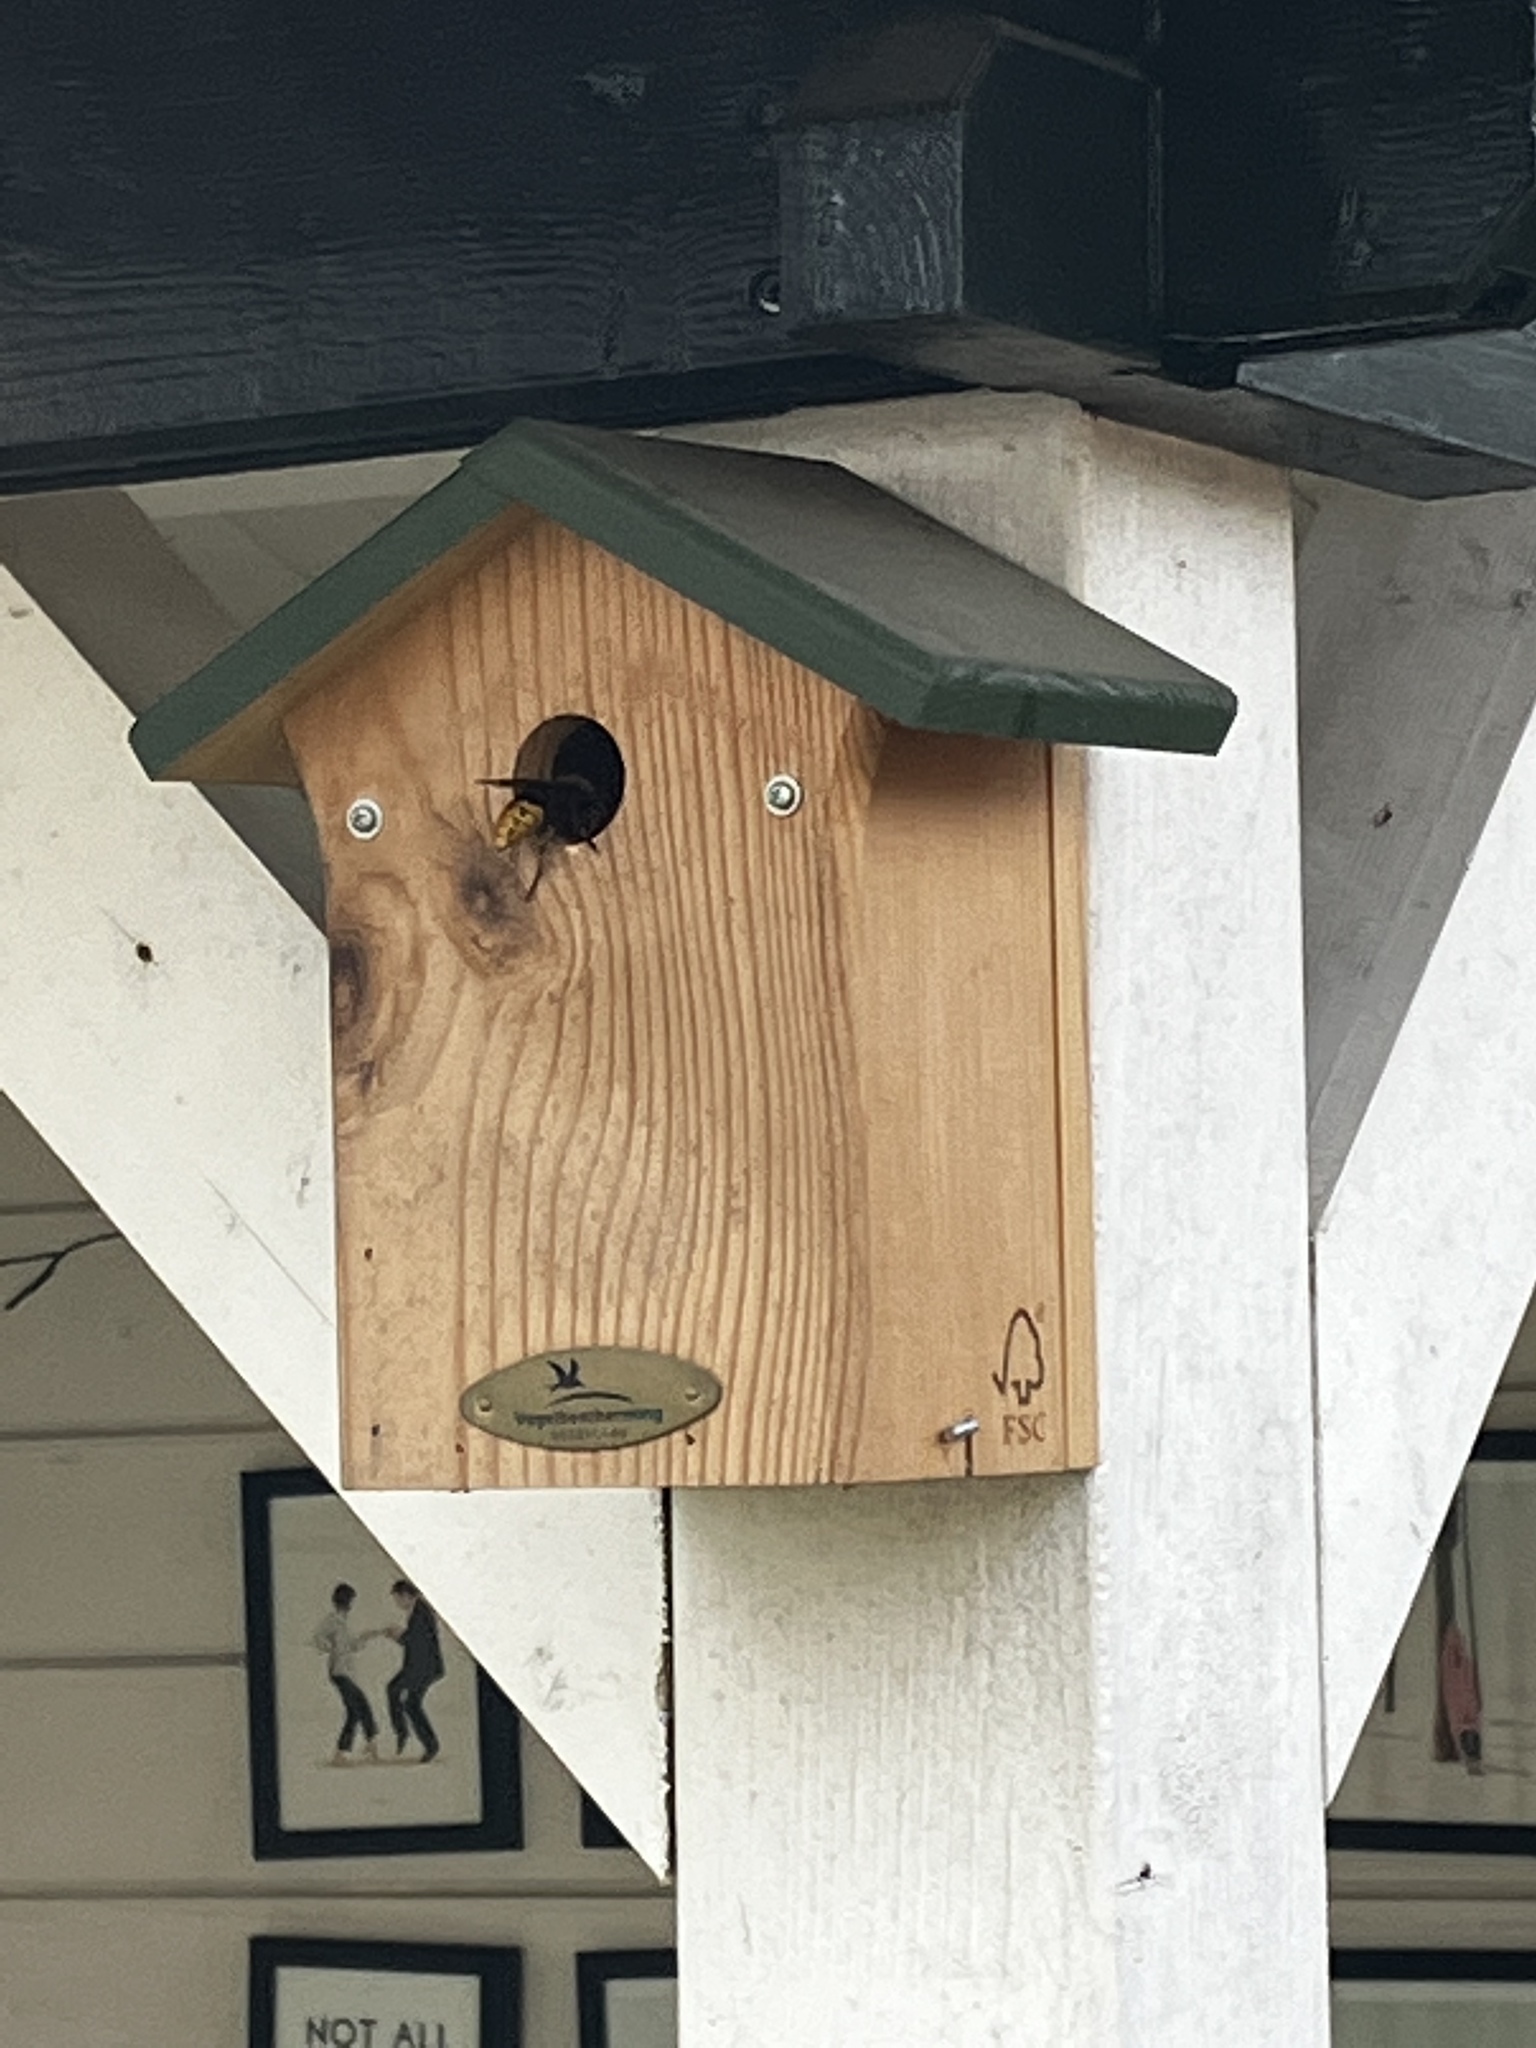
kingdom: Animalia
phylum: Arthropoda
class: Insecta
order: Hymenoptera
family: Vespidae
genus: Vespa
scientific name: Vespa crabro
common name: Hornet
